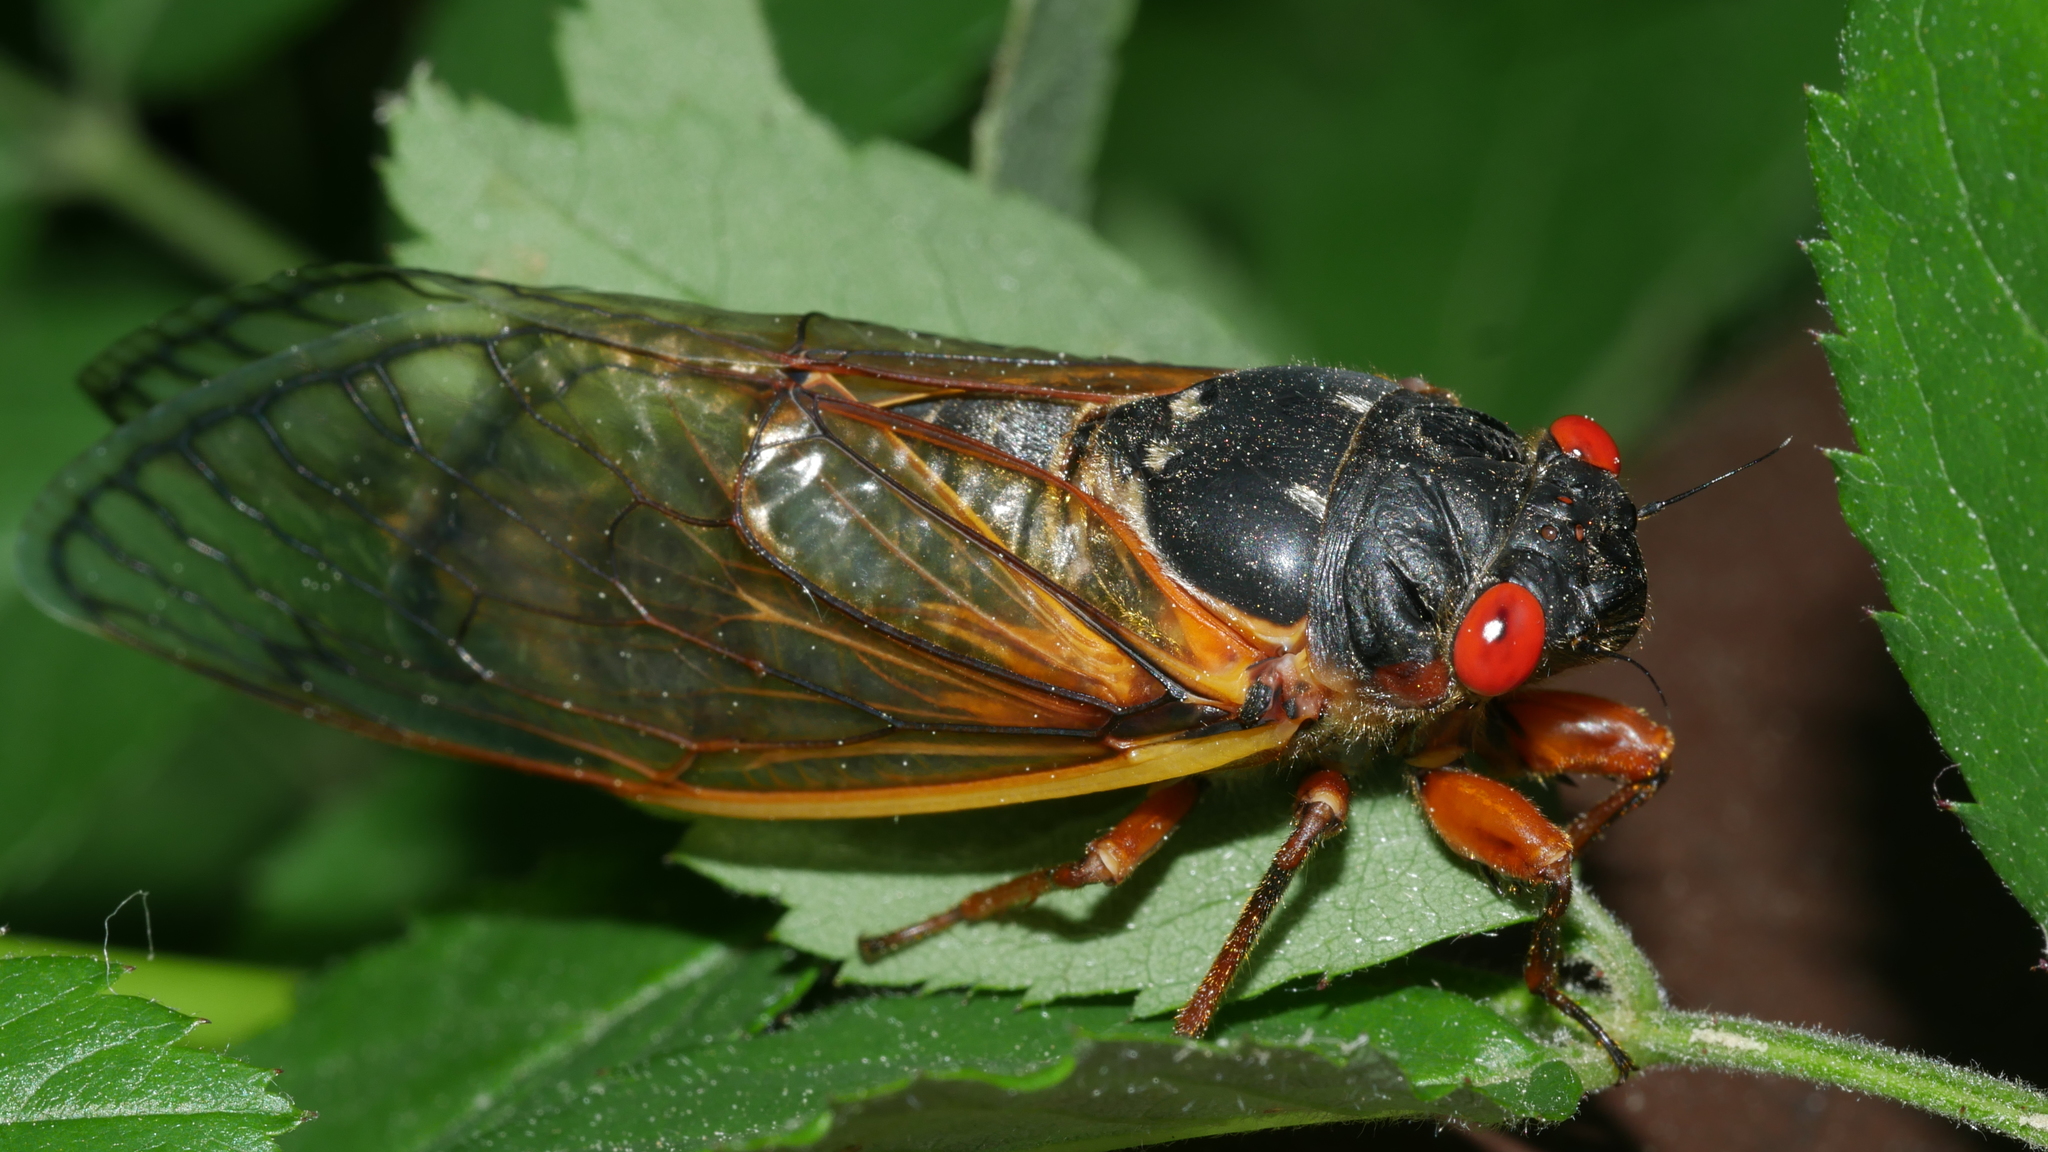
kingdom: Animalia
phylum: Arthropoda
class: Insecta
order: Hemiptera
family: Cicadidae
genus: Magicicada
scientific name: Magicicada septendecim
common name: Periodical cicada
